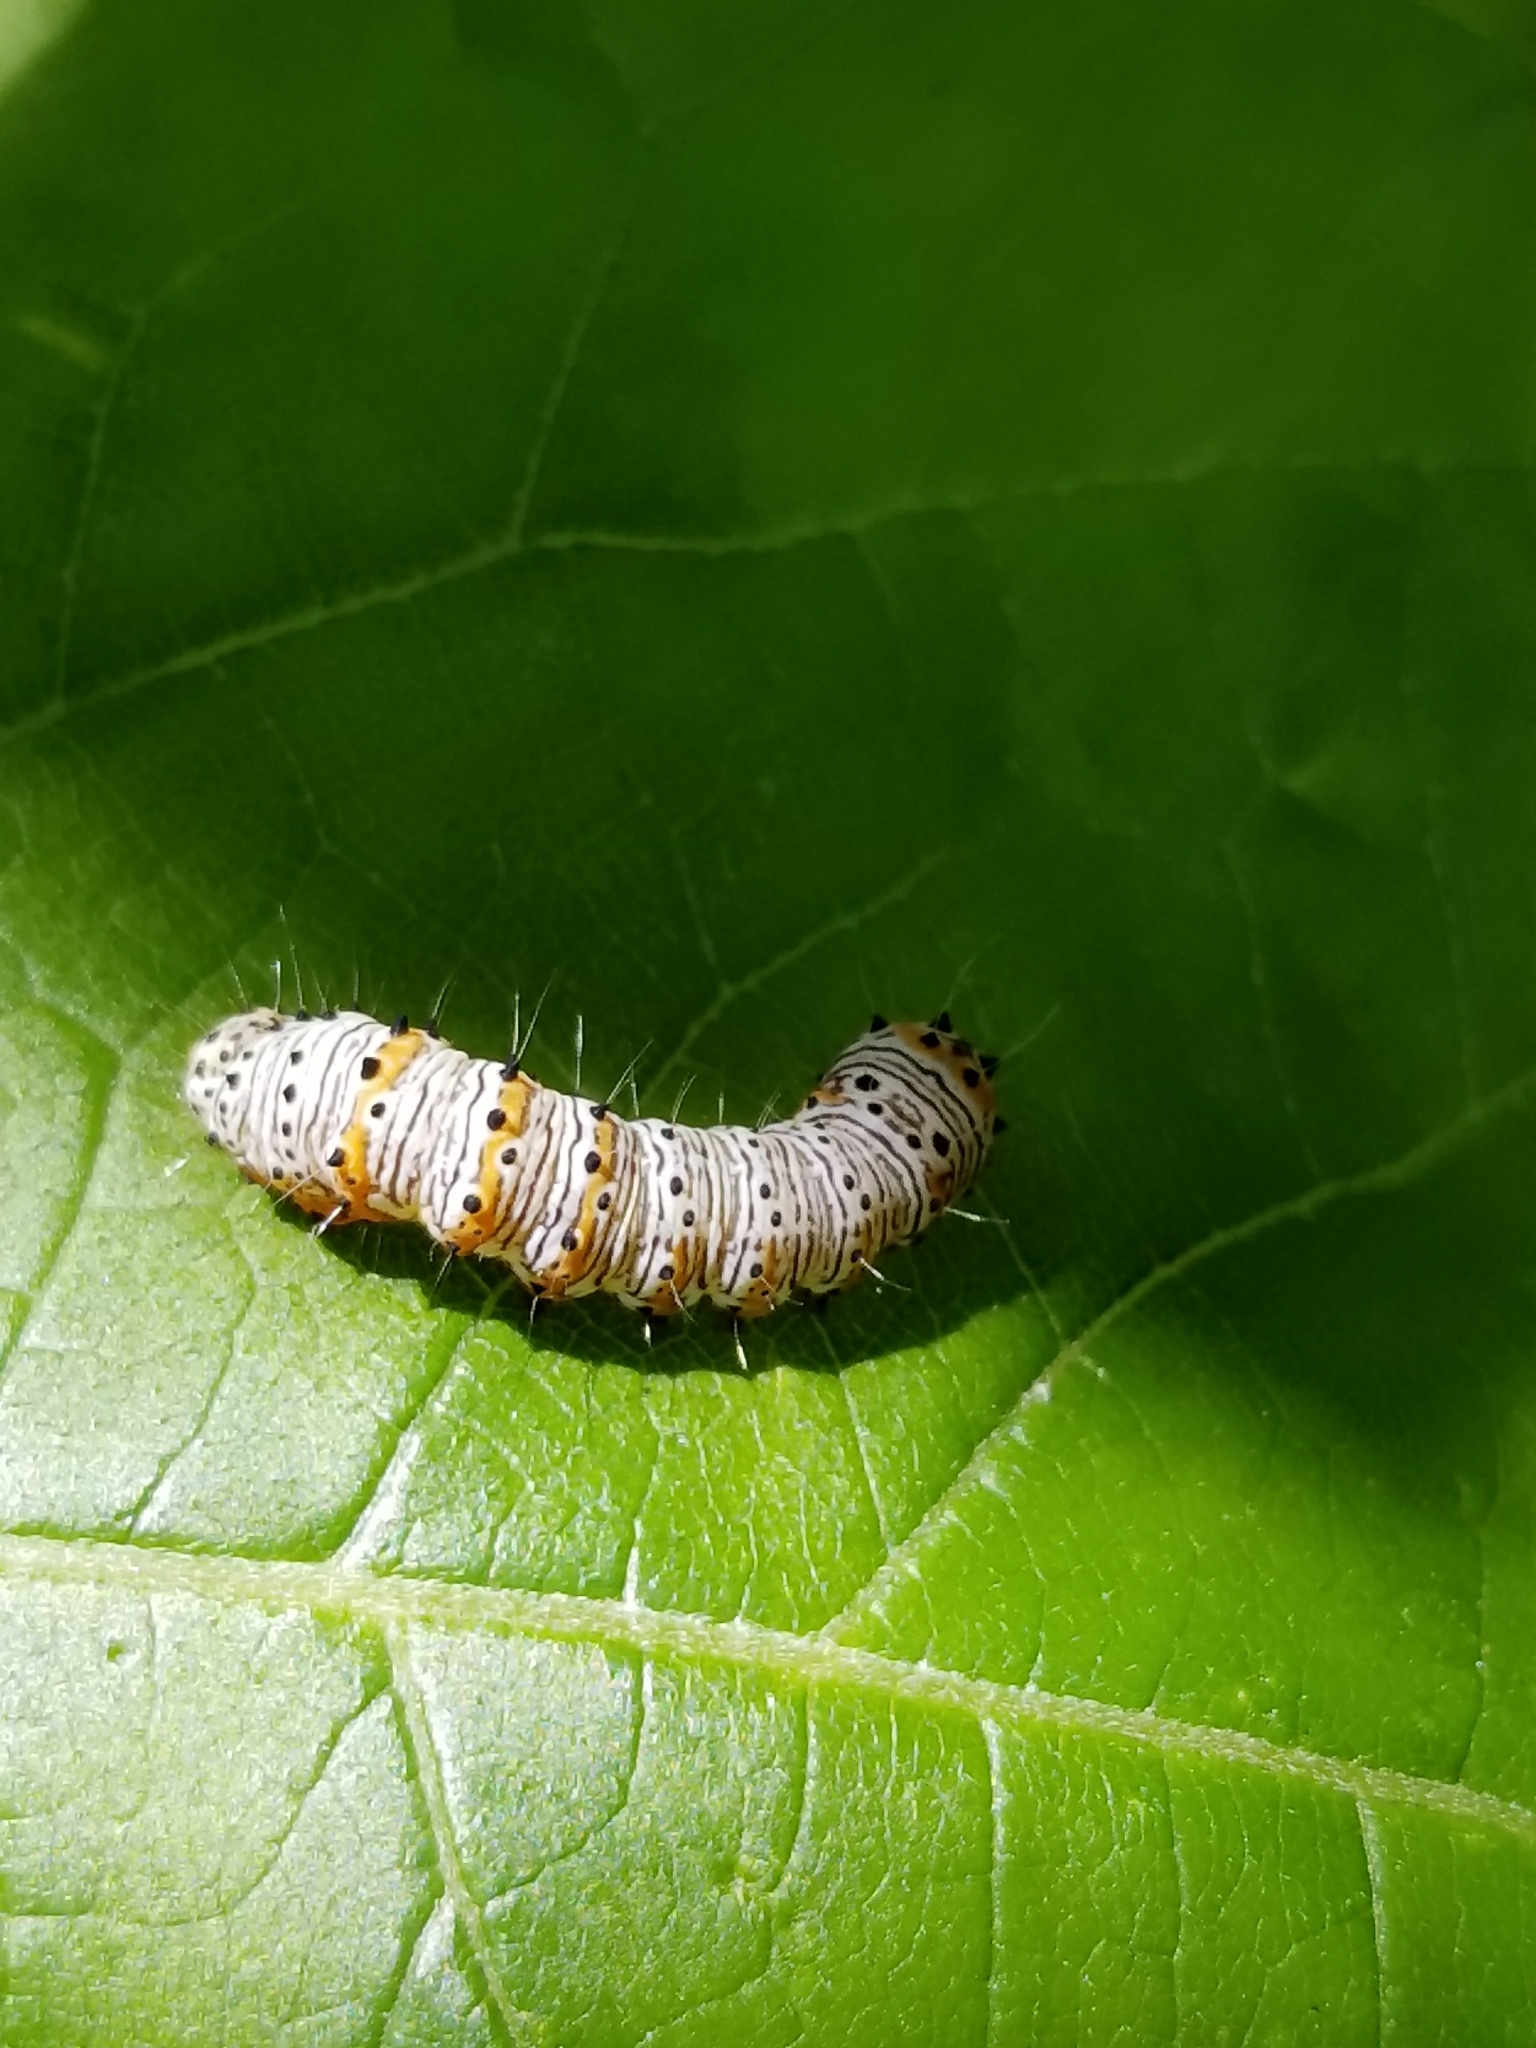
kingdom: Animalia
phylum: Arthropoda
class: Insecta
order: Lepidoptera
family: Noctuidae
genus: Alypia
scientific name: Alypia octomaculata
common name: Eight-spotted forester
